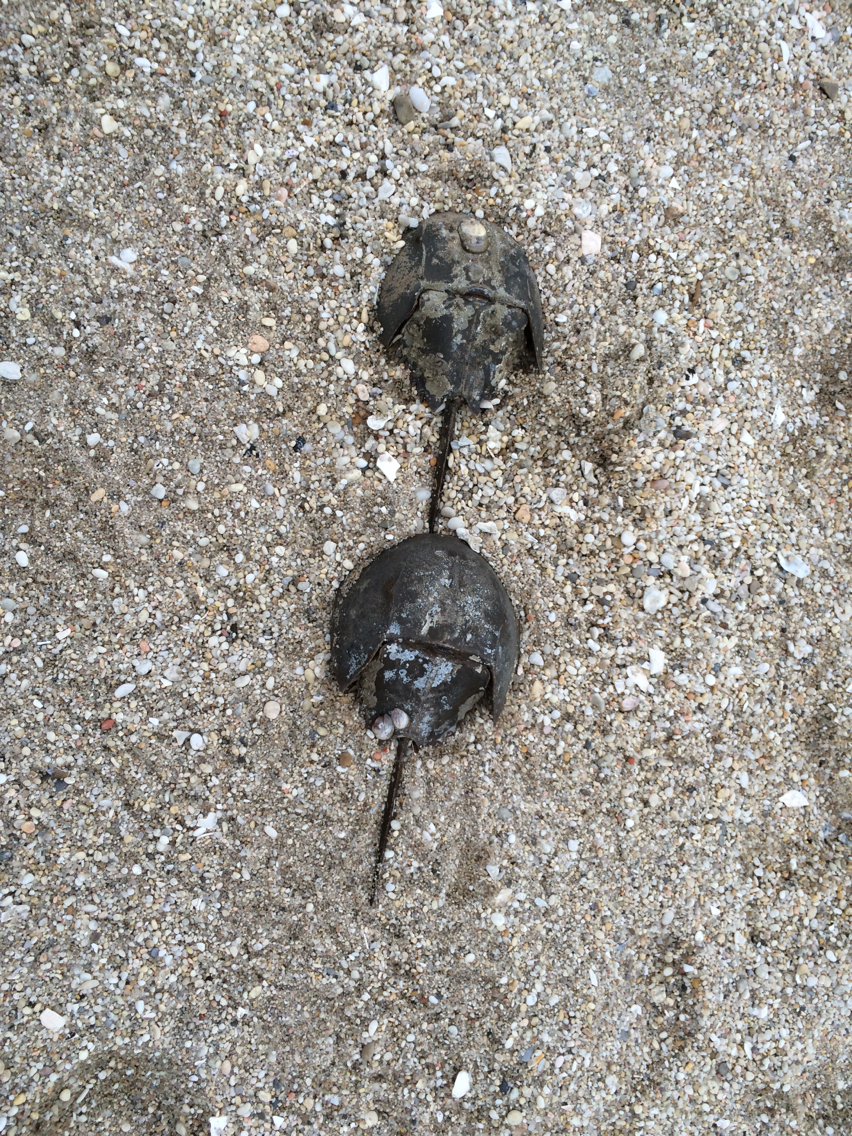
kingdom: Animalia
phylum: Arthropoda
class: Merostomata
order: Xiphosurida
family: Limulidae
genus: Limulus
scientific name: Limulus polyphemus
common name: Horseshoe crab
